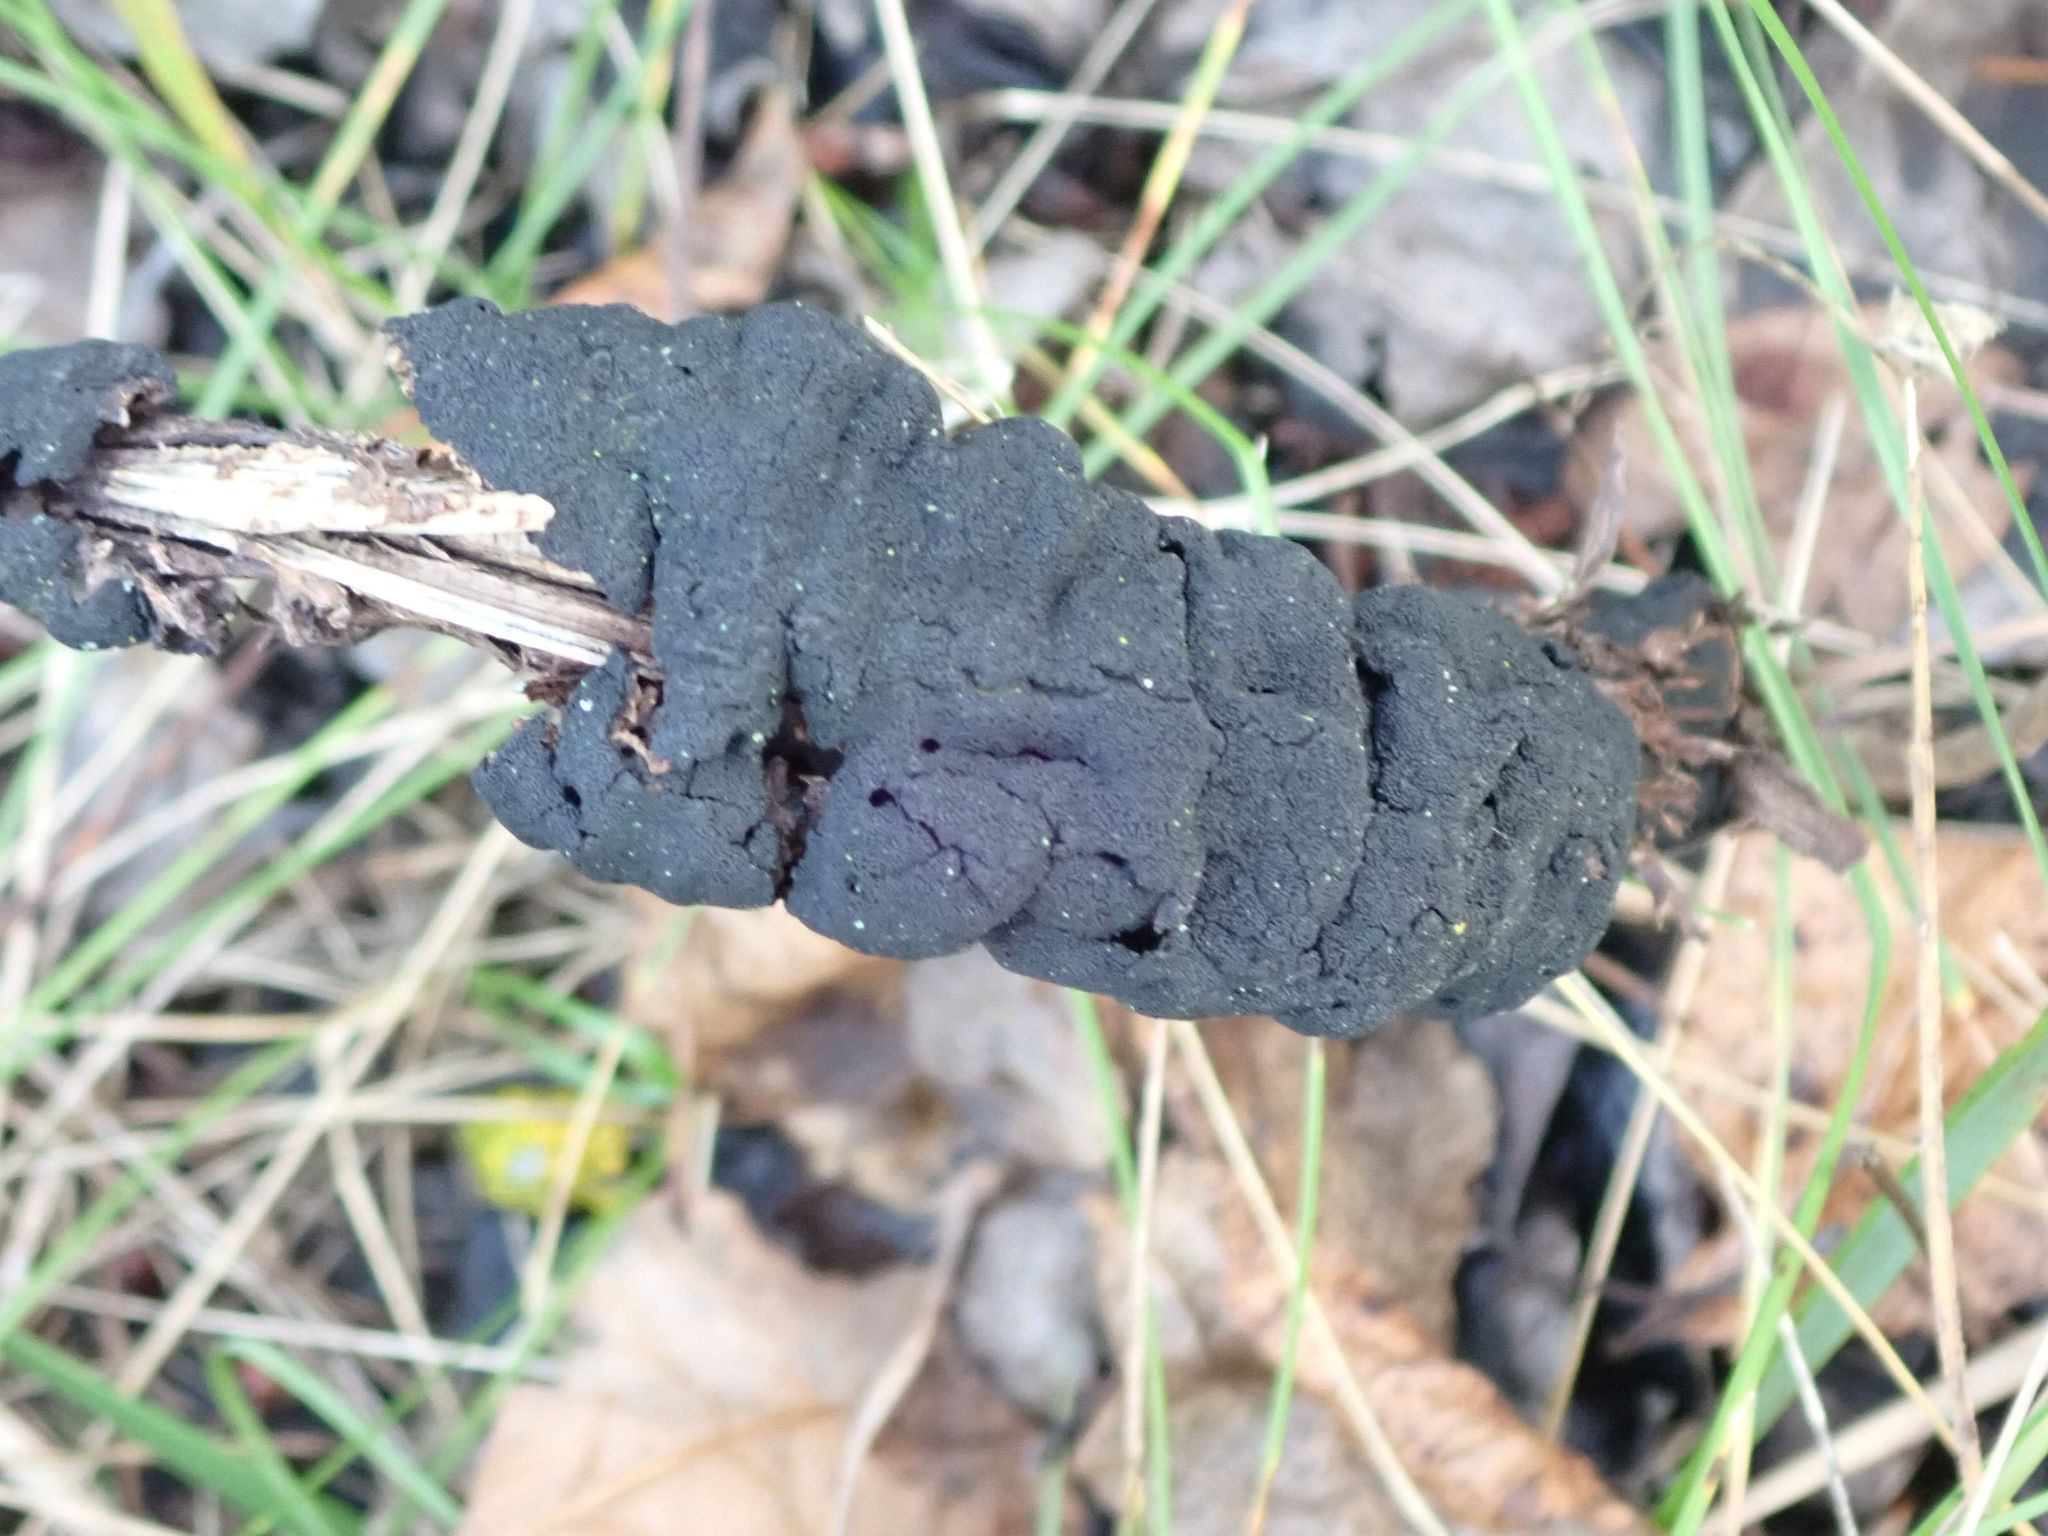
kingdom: Fungi
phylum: Ascomycota
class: Dothideomycetes
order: Venturiales
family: Venturiaceae
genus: Apiosporina
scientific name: Apiosporina morbosa
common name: Black knot
